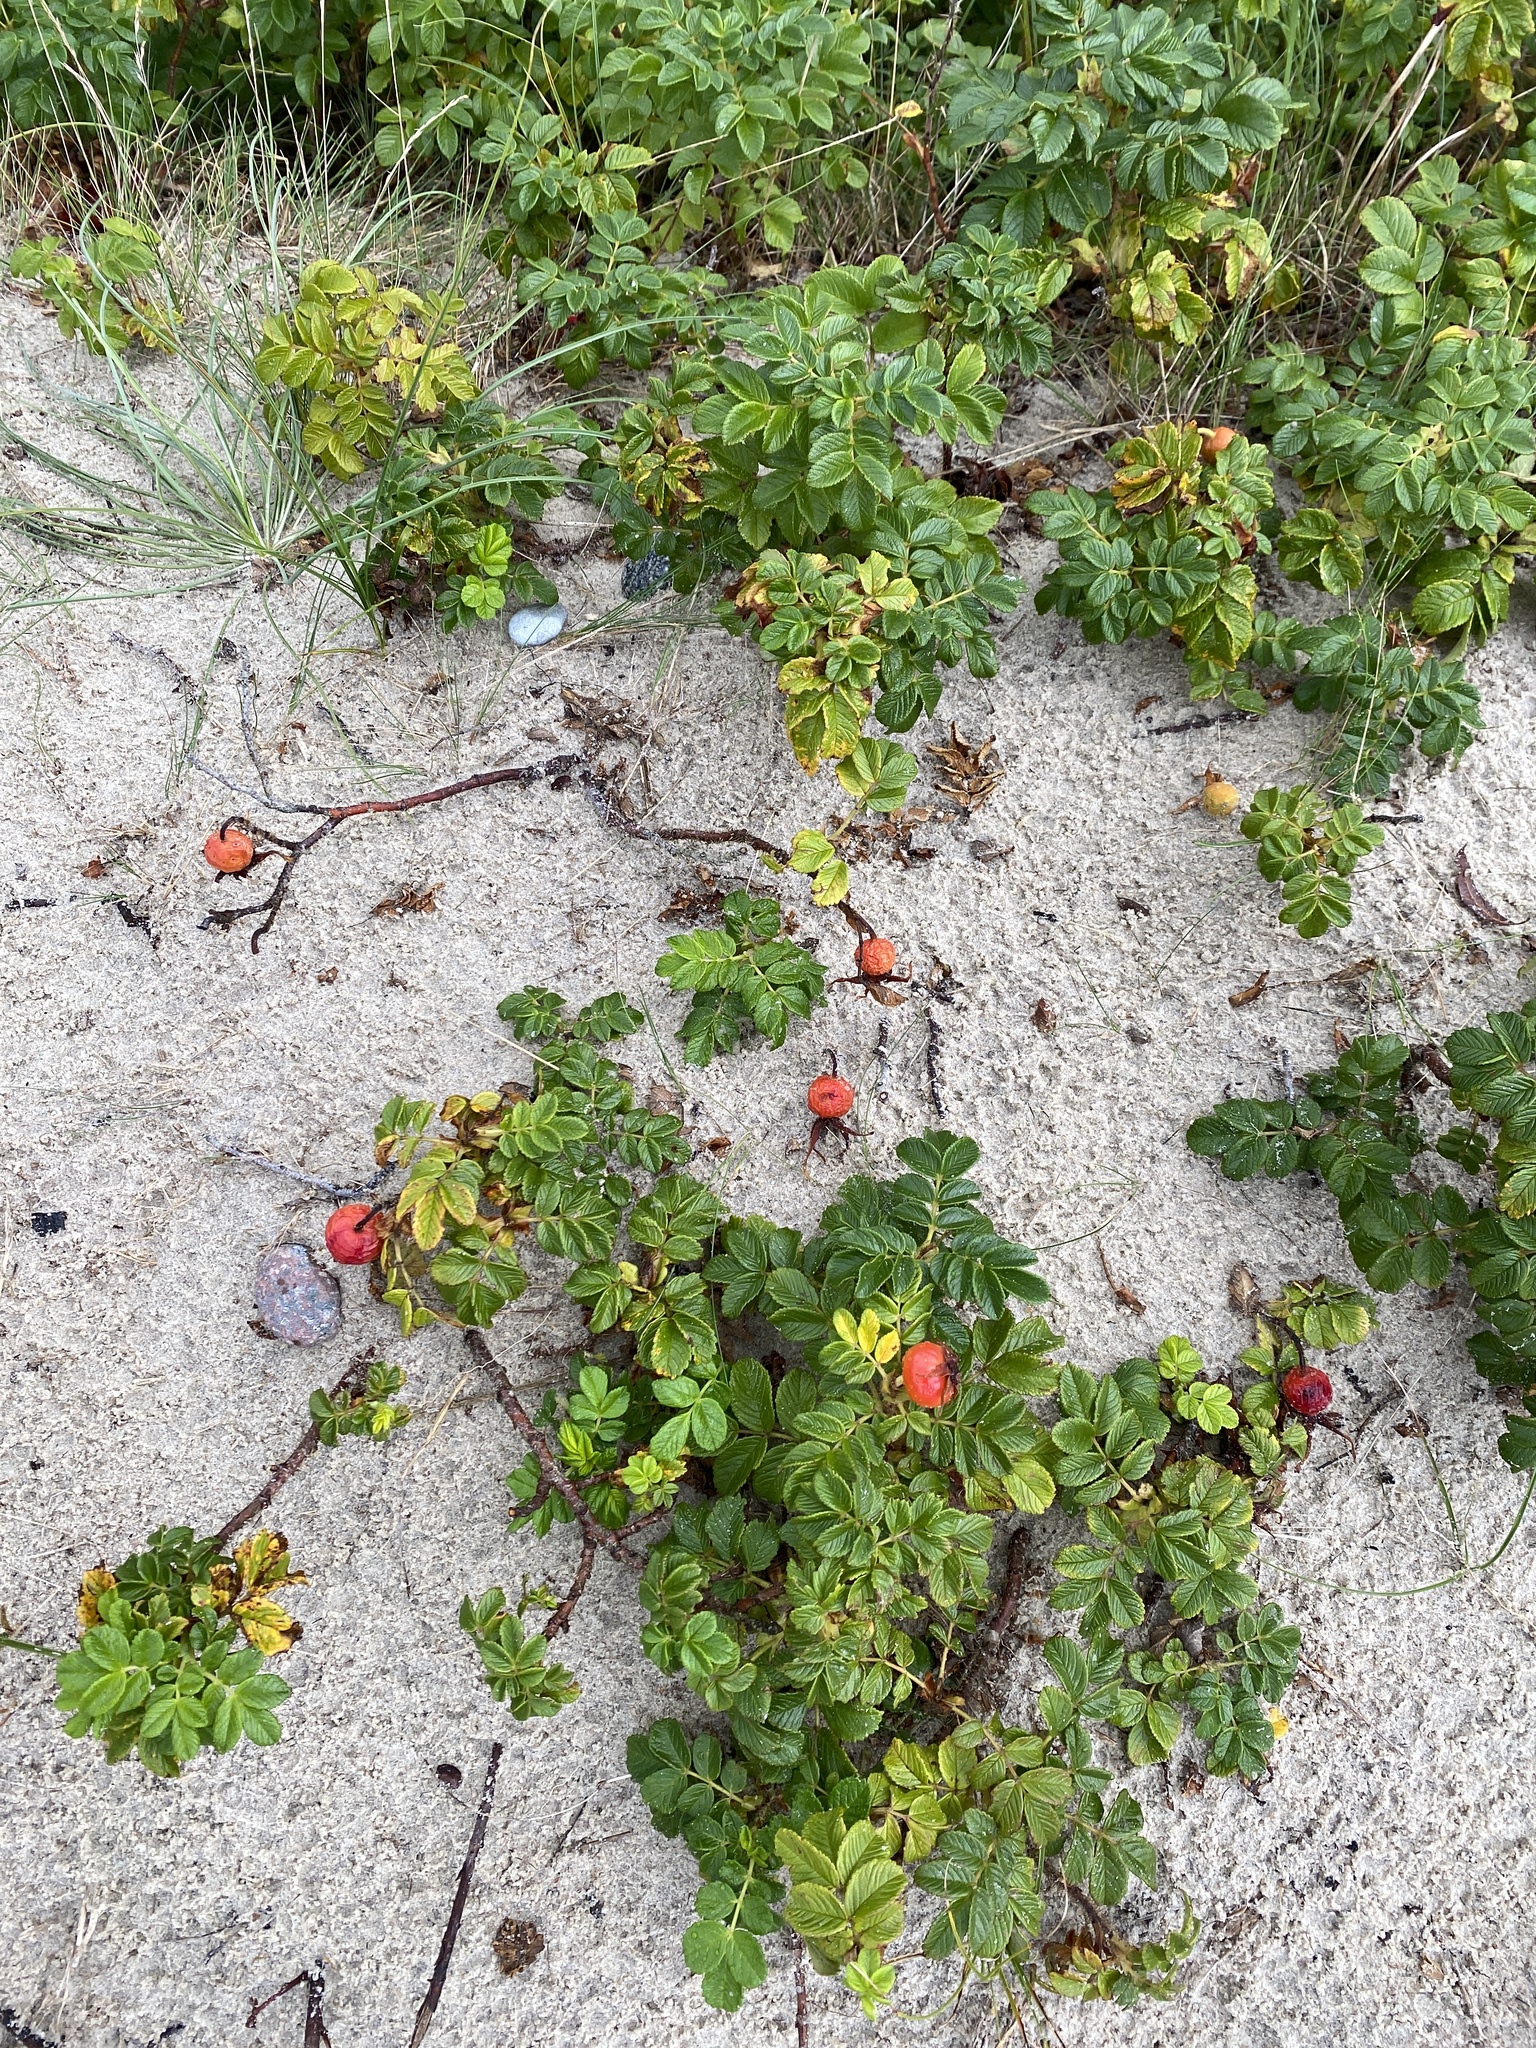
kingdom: Plantae
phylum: Tracheophyta
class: Magnoliopsida
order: Rosales
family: Rosaceae
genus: Rosa
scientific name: Rosa rugosa
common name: Japanese rose
